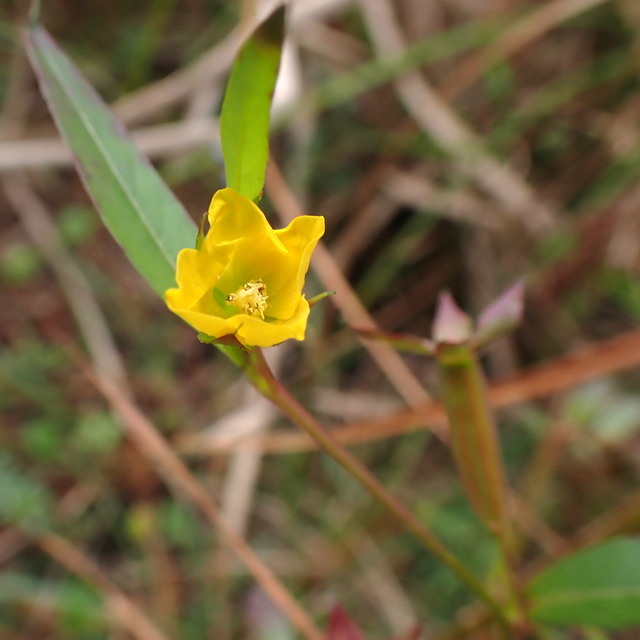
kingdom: Plantae
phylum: Tracheophyta
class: Magnoliopsida
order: Myrtales
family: Onagraceae
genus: Ludwigia
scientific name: Ludwigia decurrens
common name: Winged water-primrose
